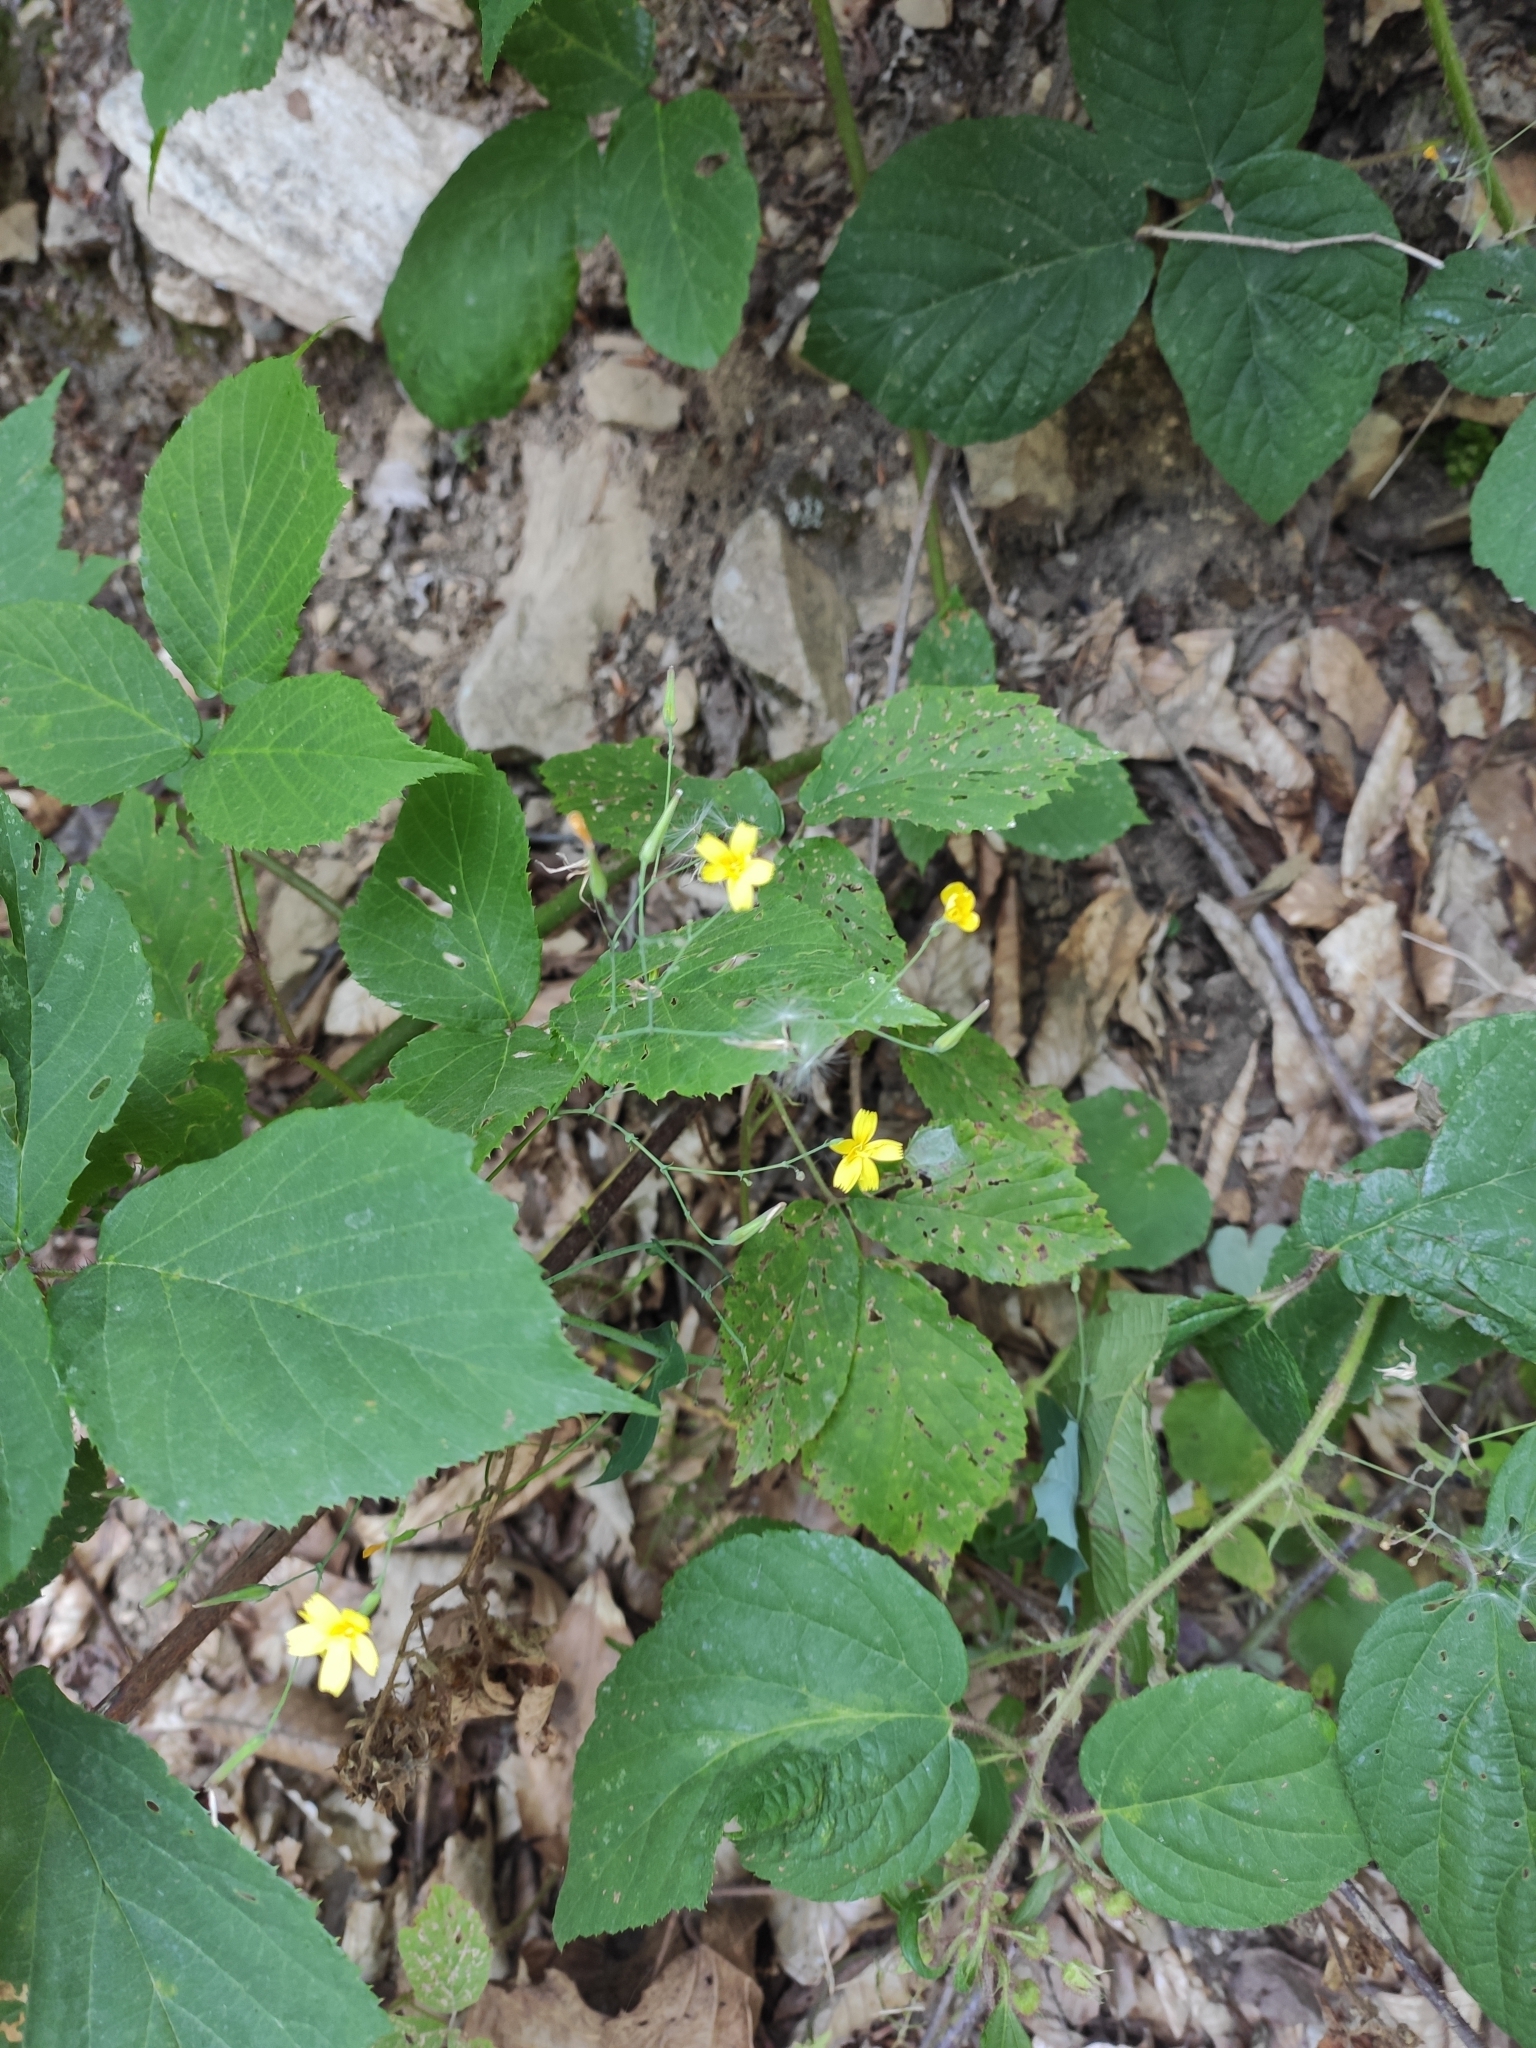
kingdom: Plantae
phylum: Tracheophyta
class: Magnoliopsida
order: Asterales
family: Asteraceae
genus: Mycelis
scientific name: Mycelis muralis
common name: Wall lettuce
